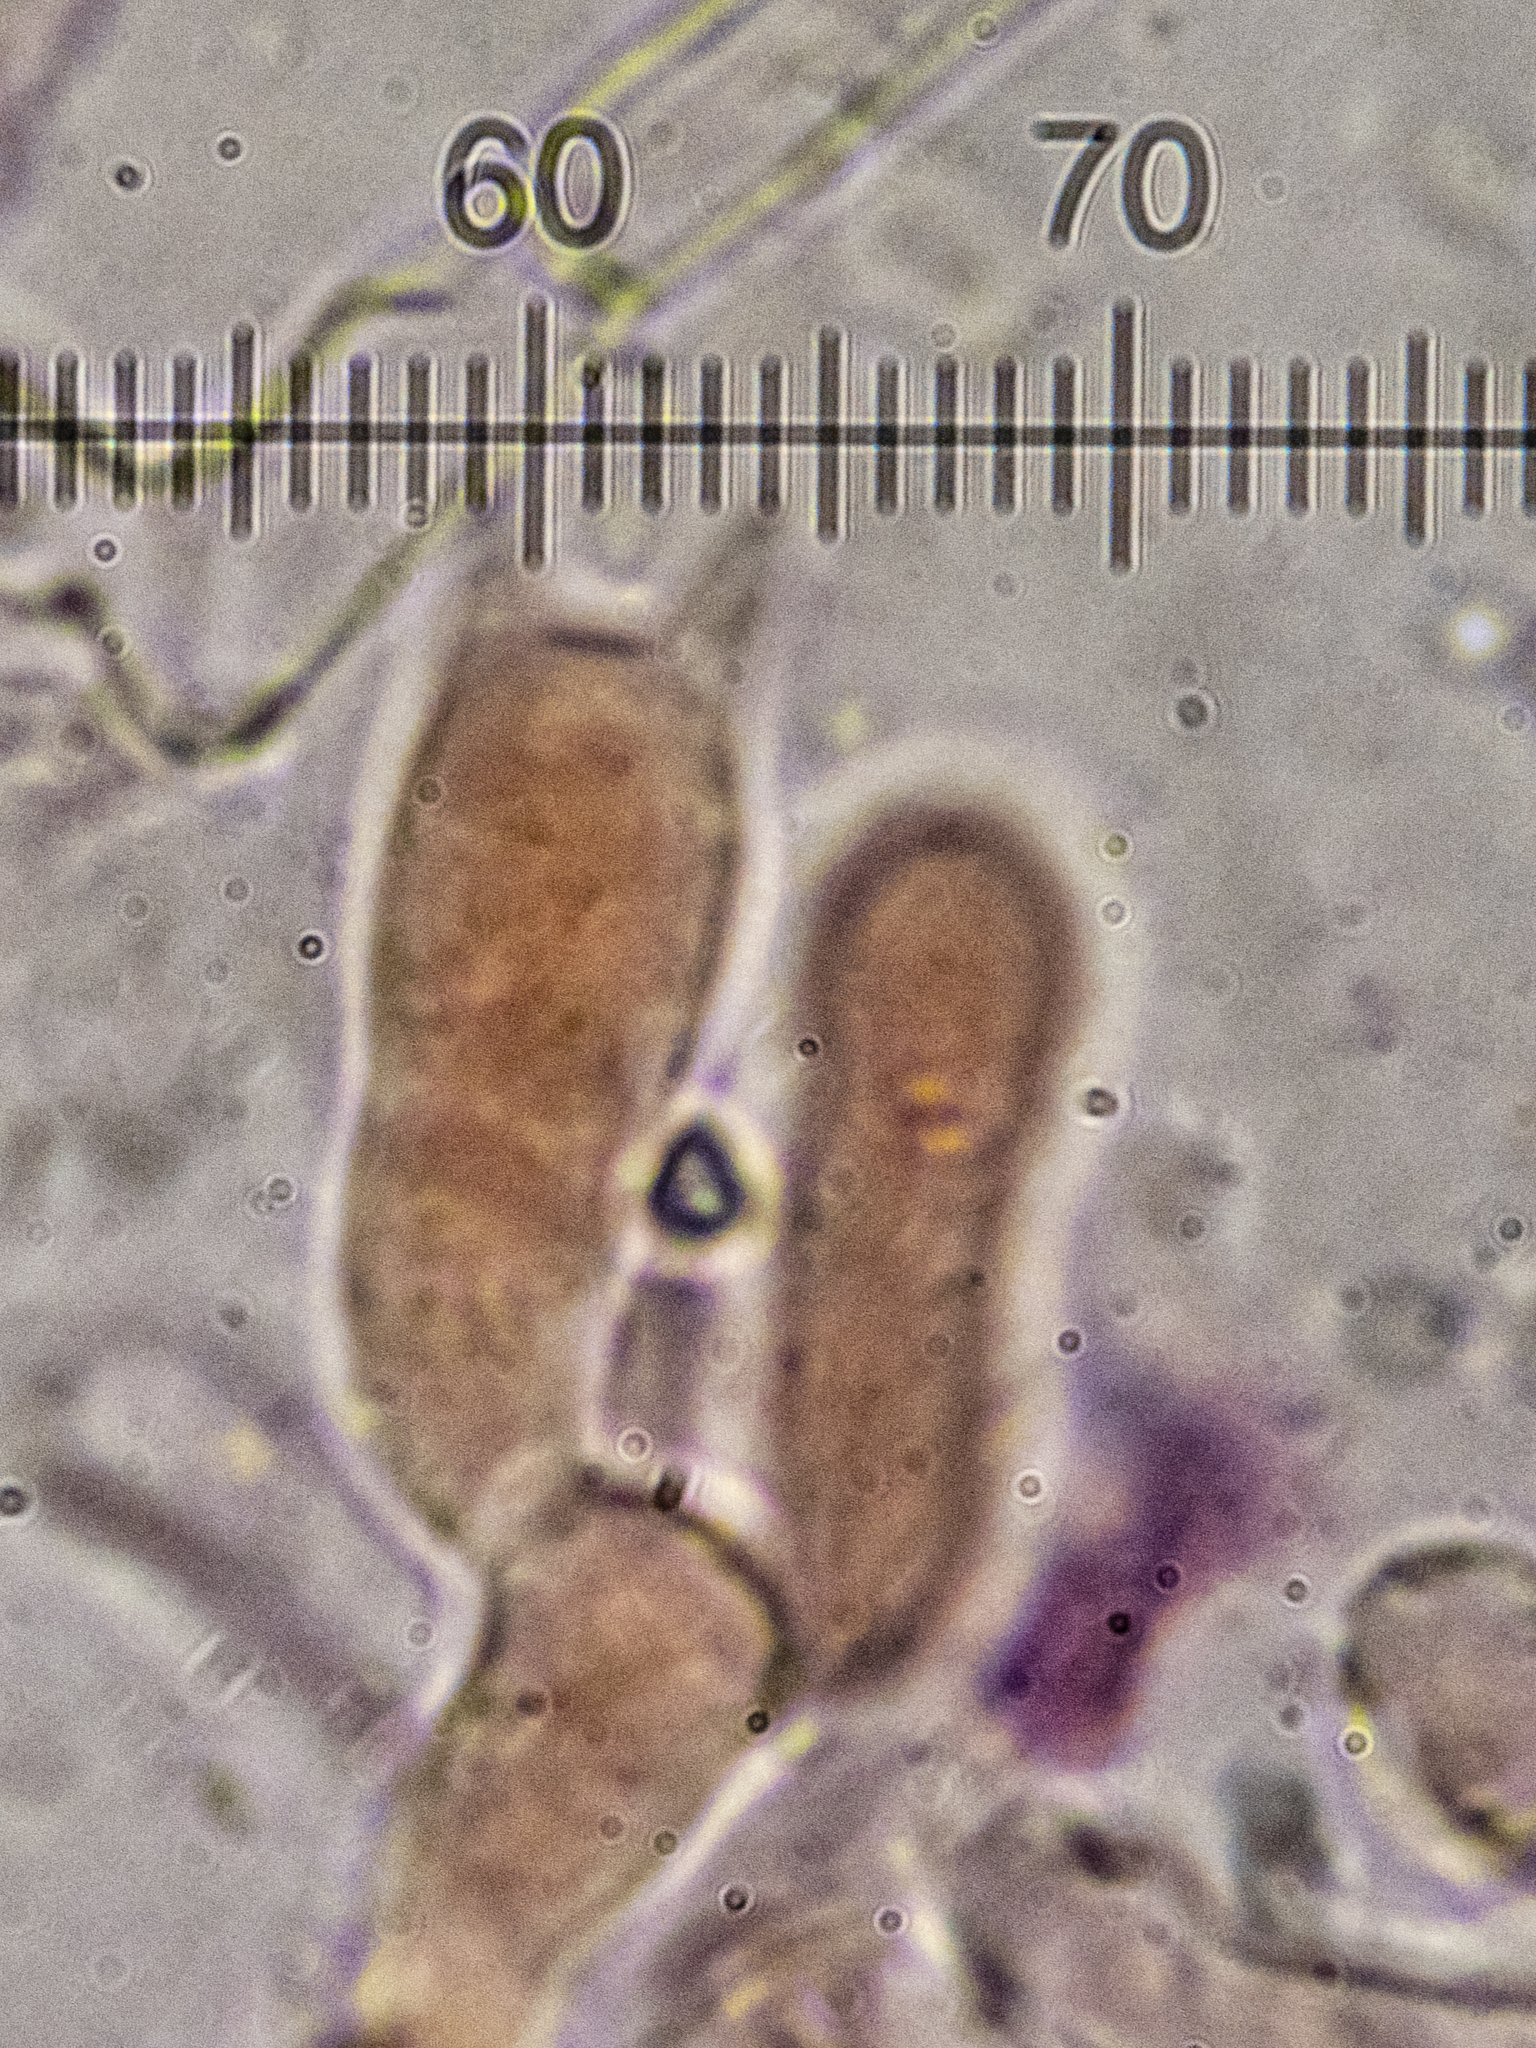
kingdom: Fungi
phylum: Basidiomycota
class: Agaricomycetes
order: Atheliales
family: Atheliaceae
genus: Athelia
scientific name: Athelia arachnoidea
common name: Candelabra duster
